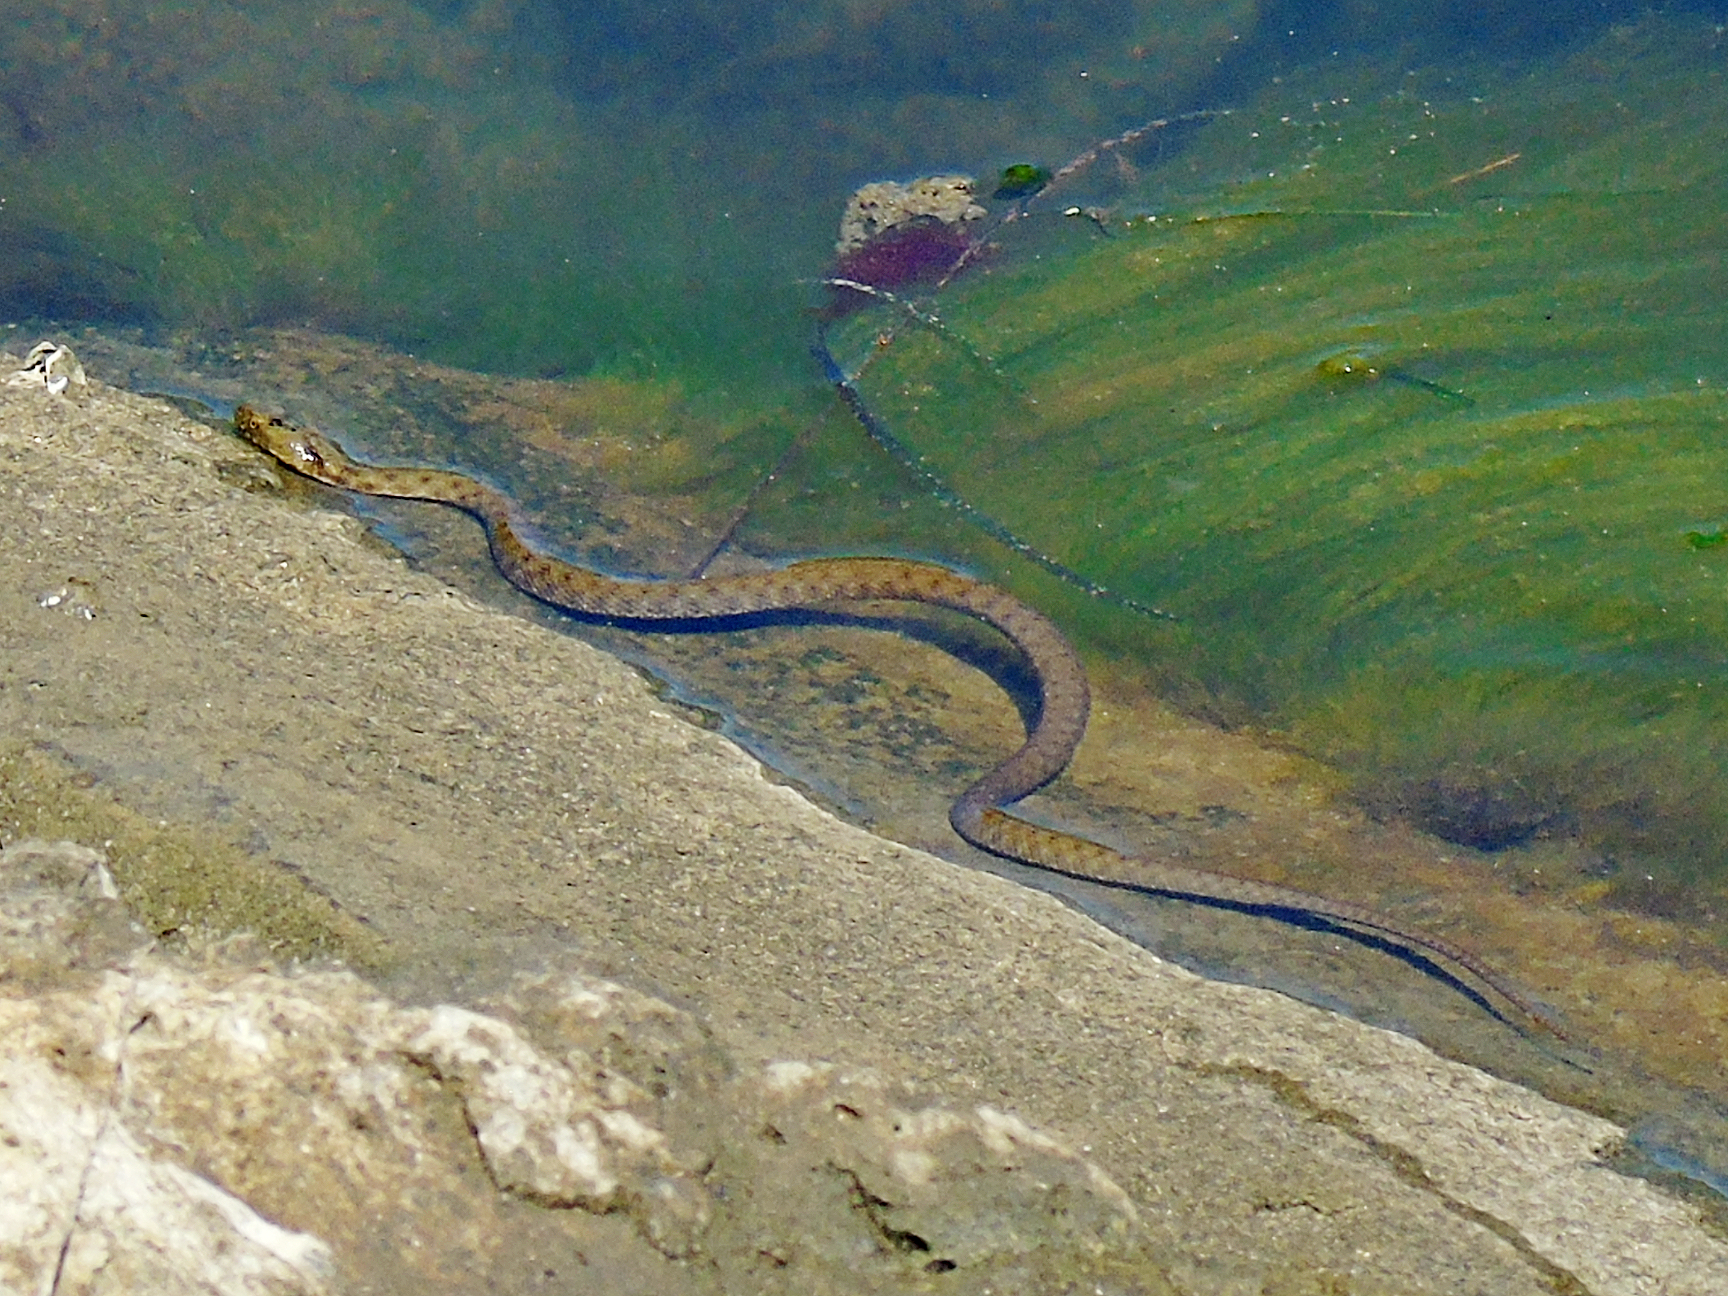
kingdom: Animalia
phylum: Chordata
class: Squamata
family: Colubridae
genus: Natrix
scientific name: Natrix tessellata
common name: Dice snake
